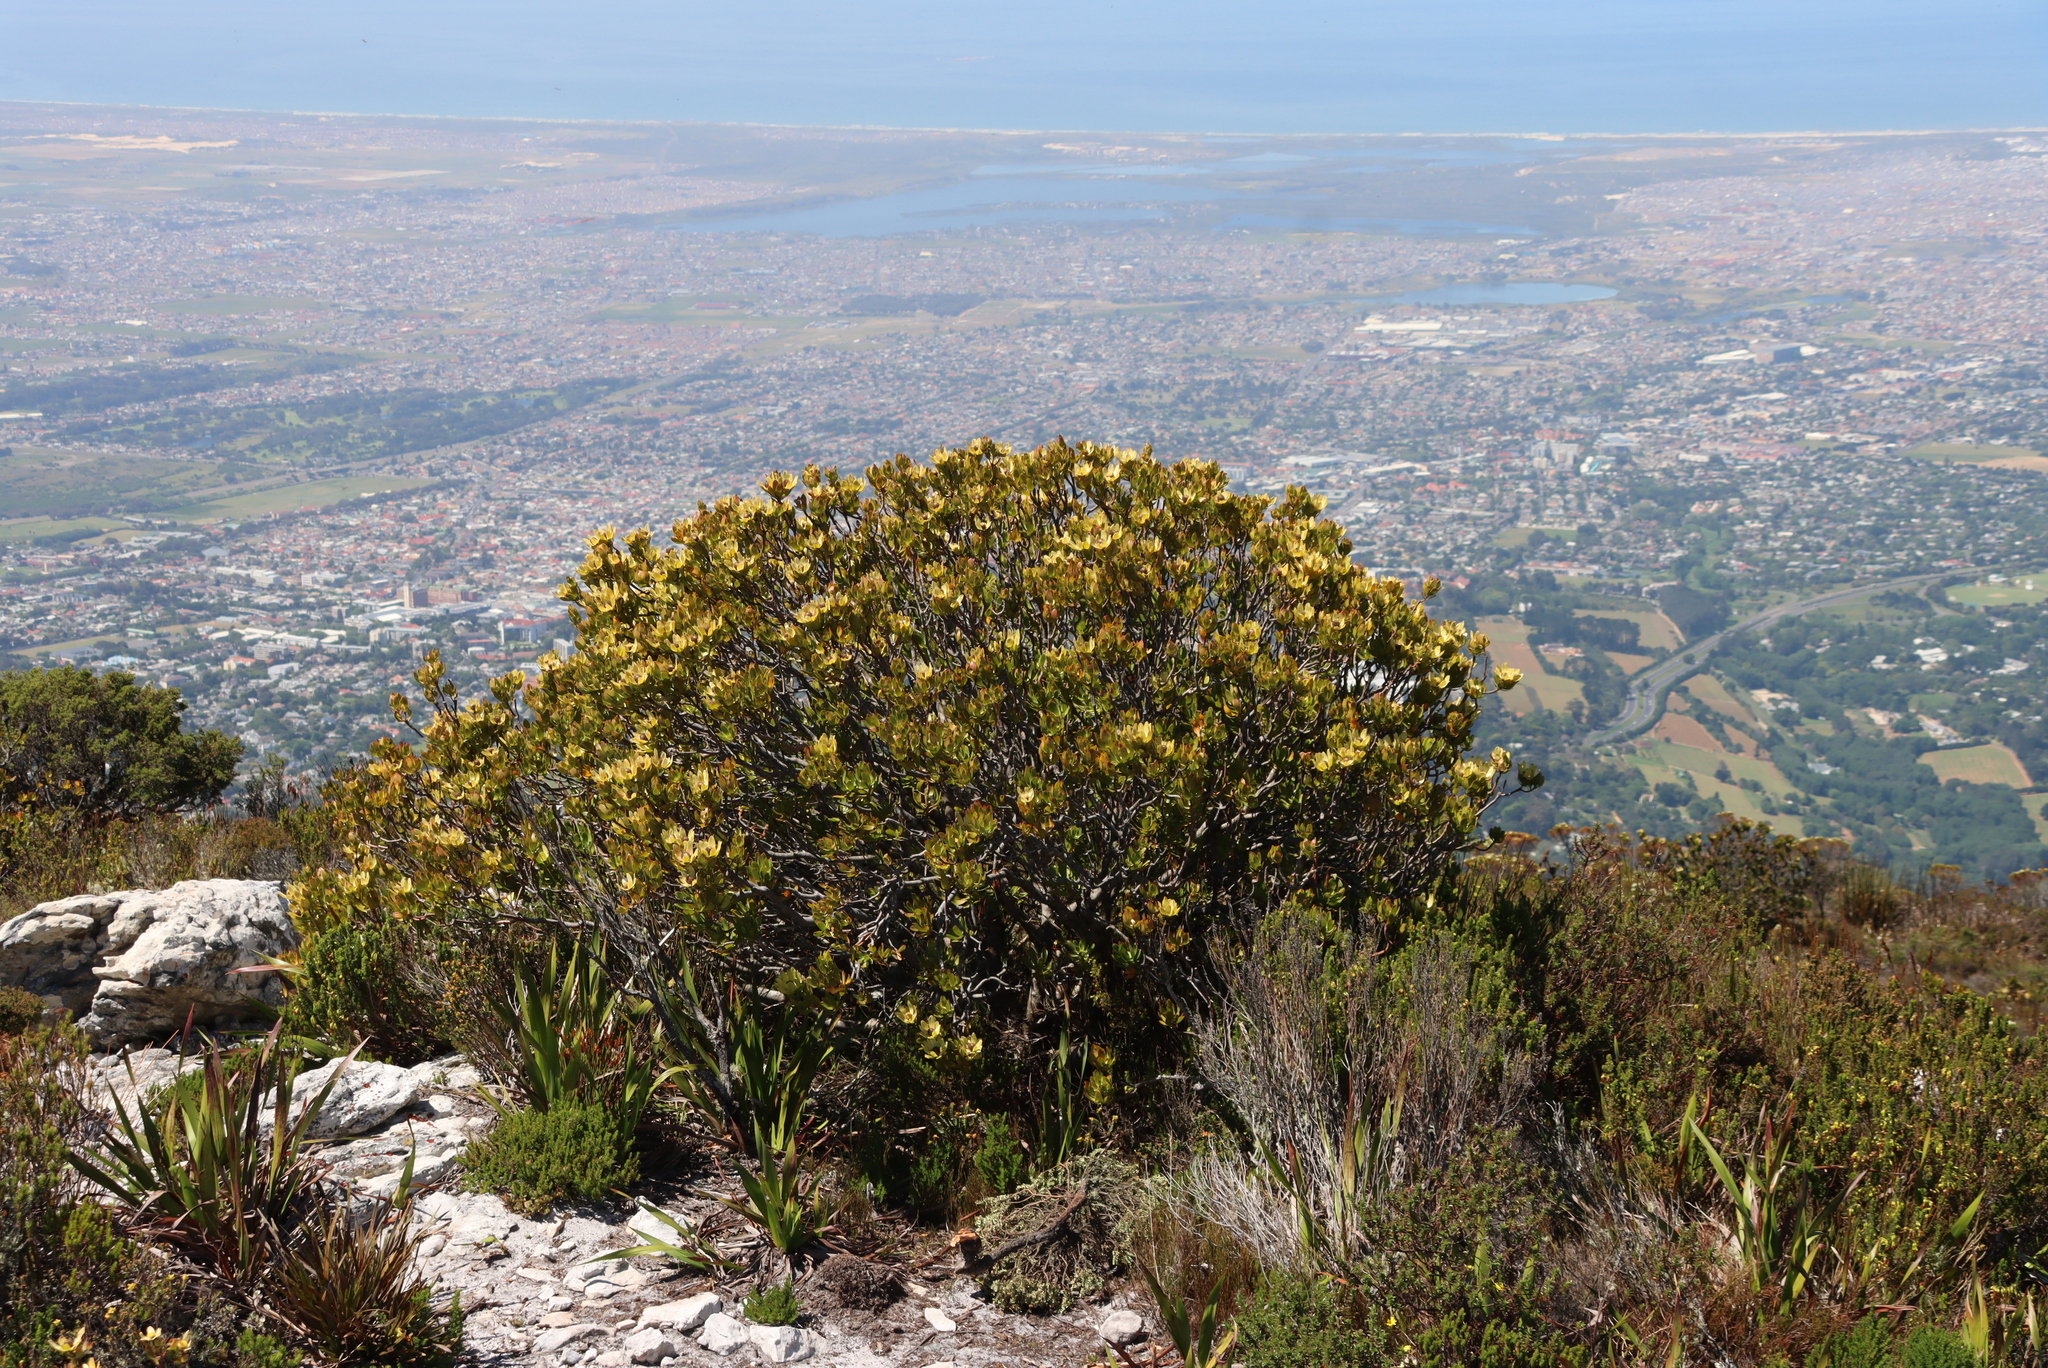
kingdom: Plantae
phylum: Tracheophyta
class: Magnoliopsida
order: Proteales
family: Proteaceae
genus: Leucadendron
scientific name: Leucadendron strobilinum
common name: Mountain rose
